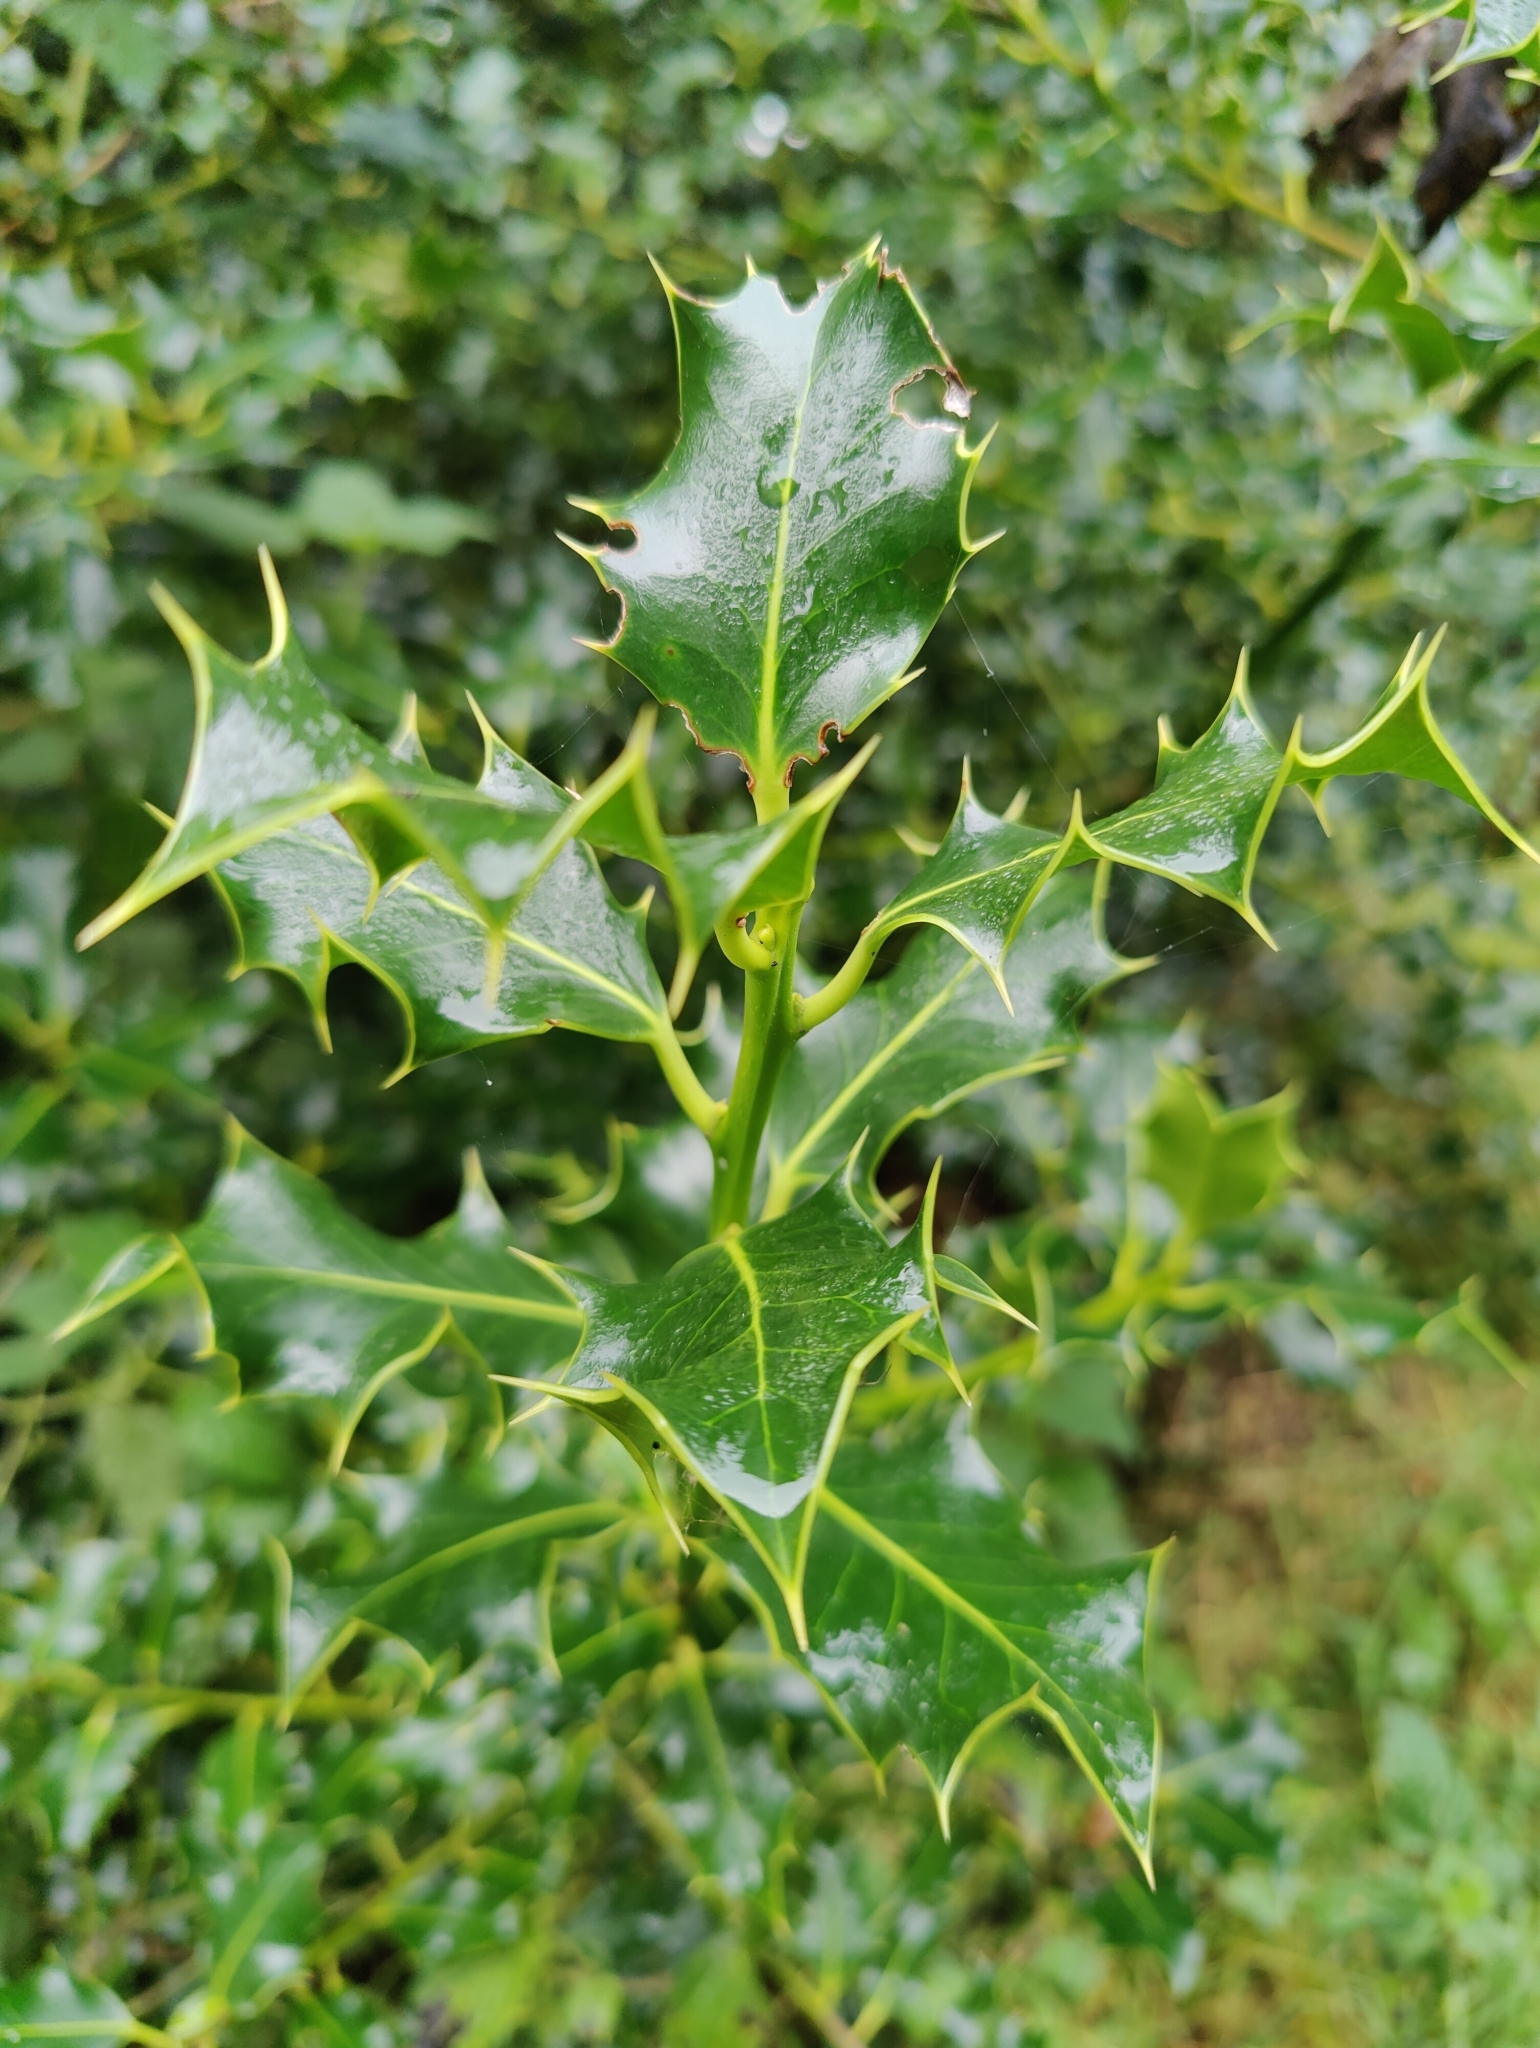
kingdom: Plantae
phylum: Tracheophyta
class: Magnoliopsida
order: Aquifoliales
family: Aquifoliaceae
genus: Ilex
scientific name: Ilex aquifolium
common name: English holly
